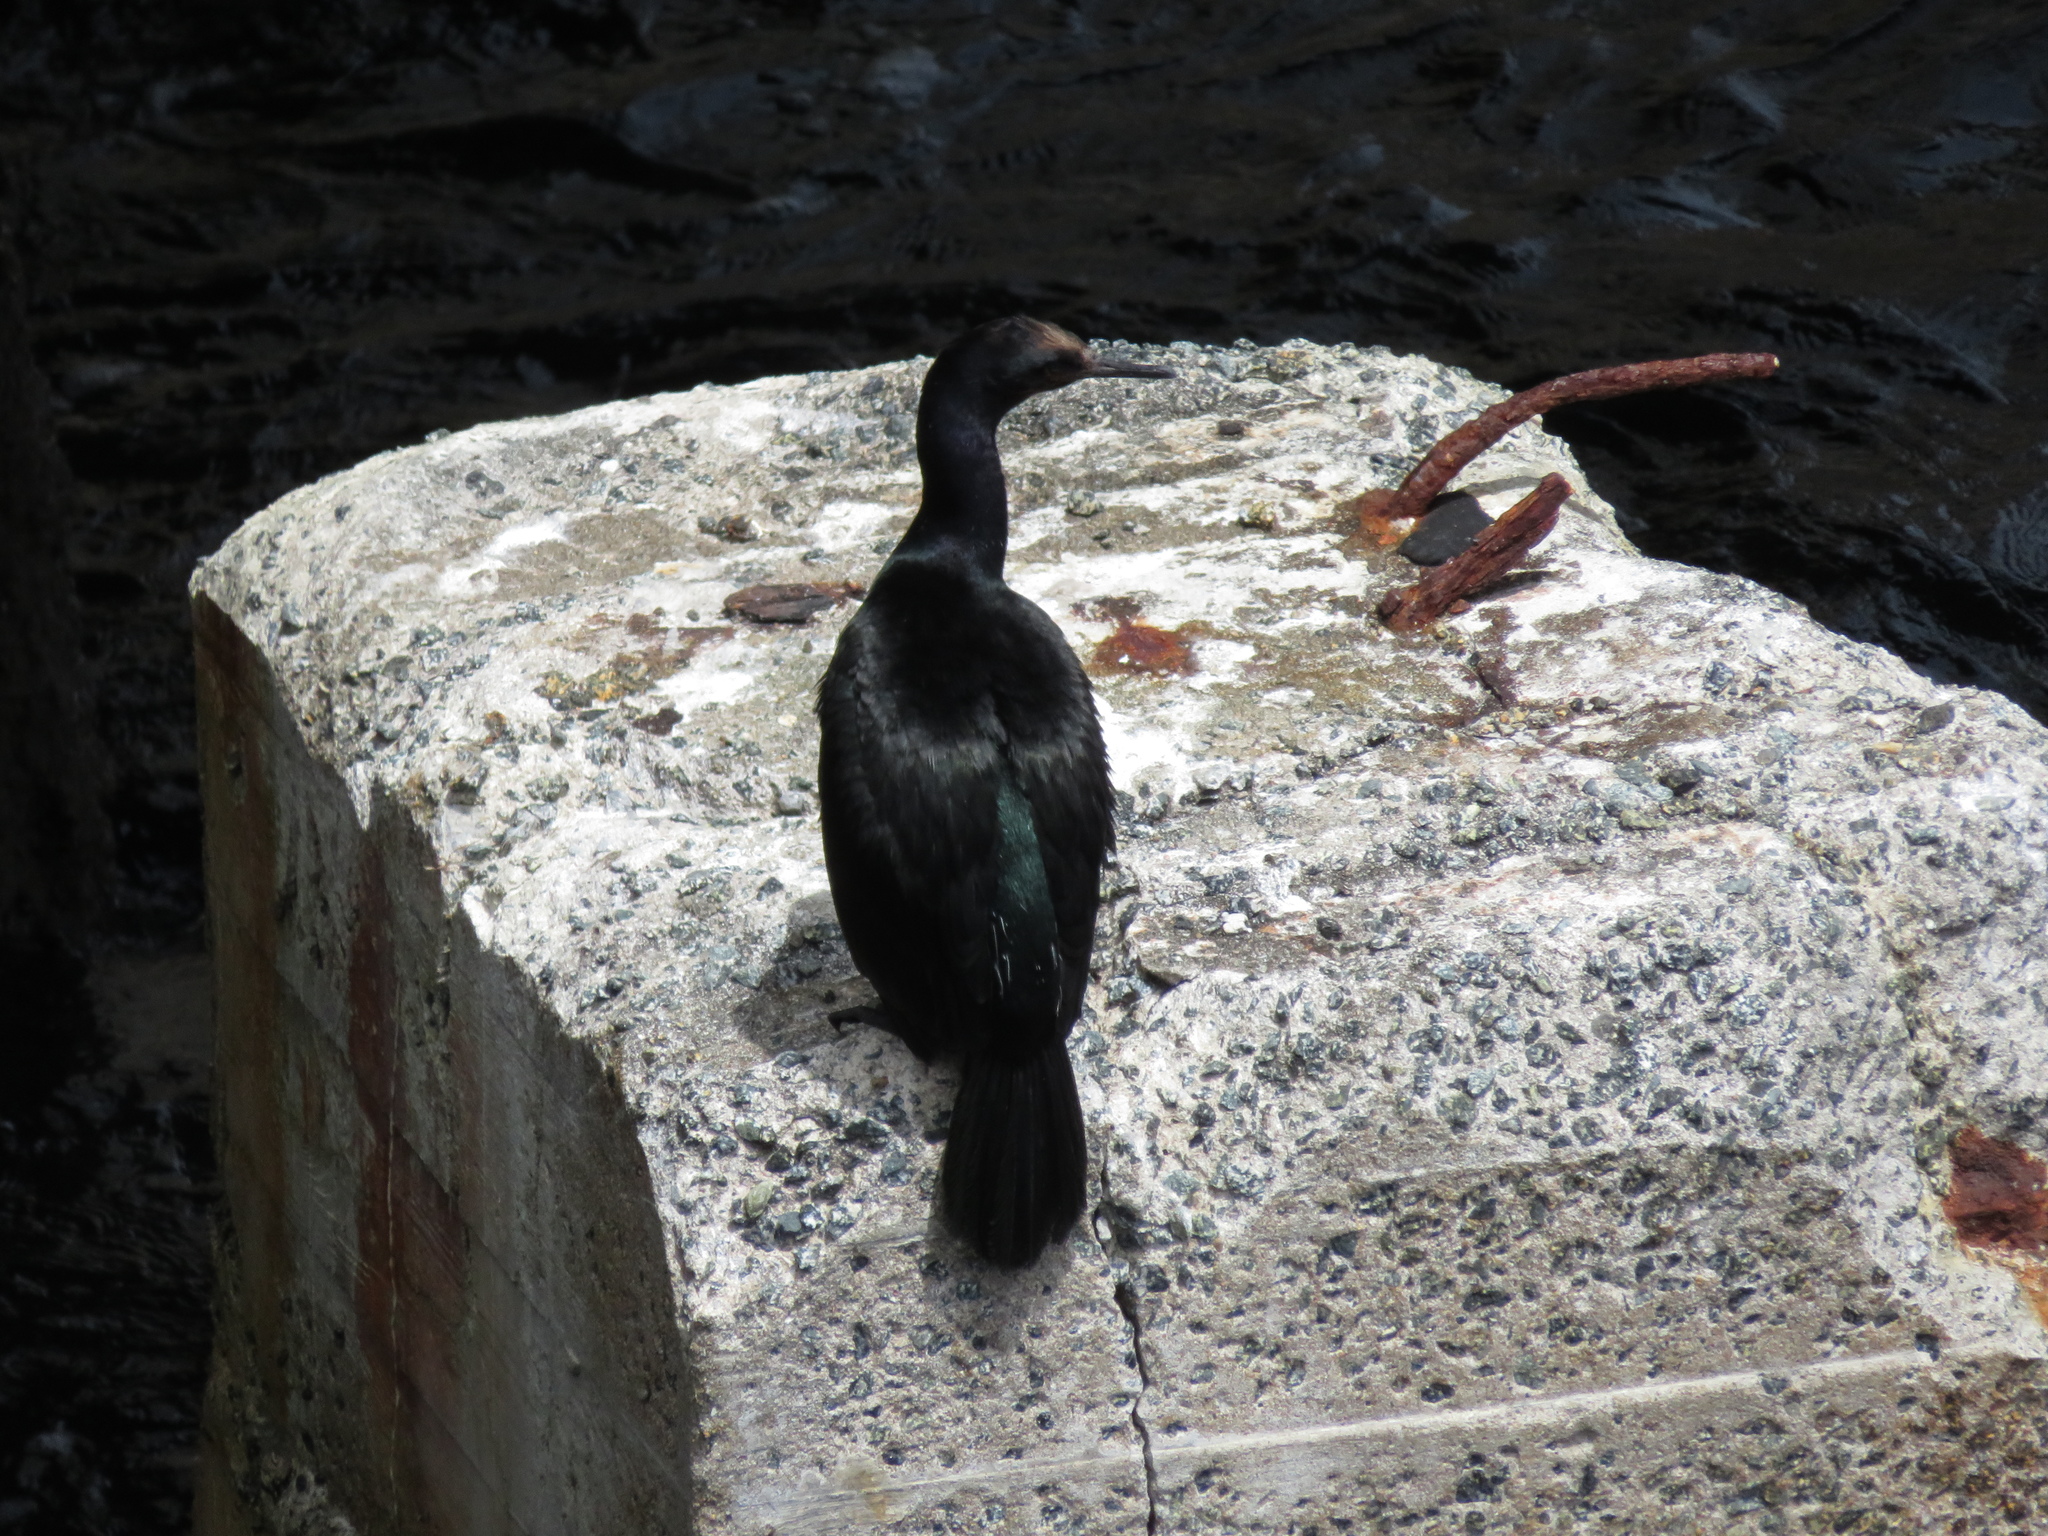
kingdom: Animalia
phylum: Chordata
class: Aves
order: Suliformes
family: Phalacrocoracidae
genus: Phalacrocorax
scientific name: Phalacrocorax pelagicus
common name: Pelagic cormorant
